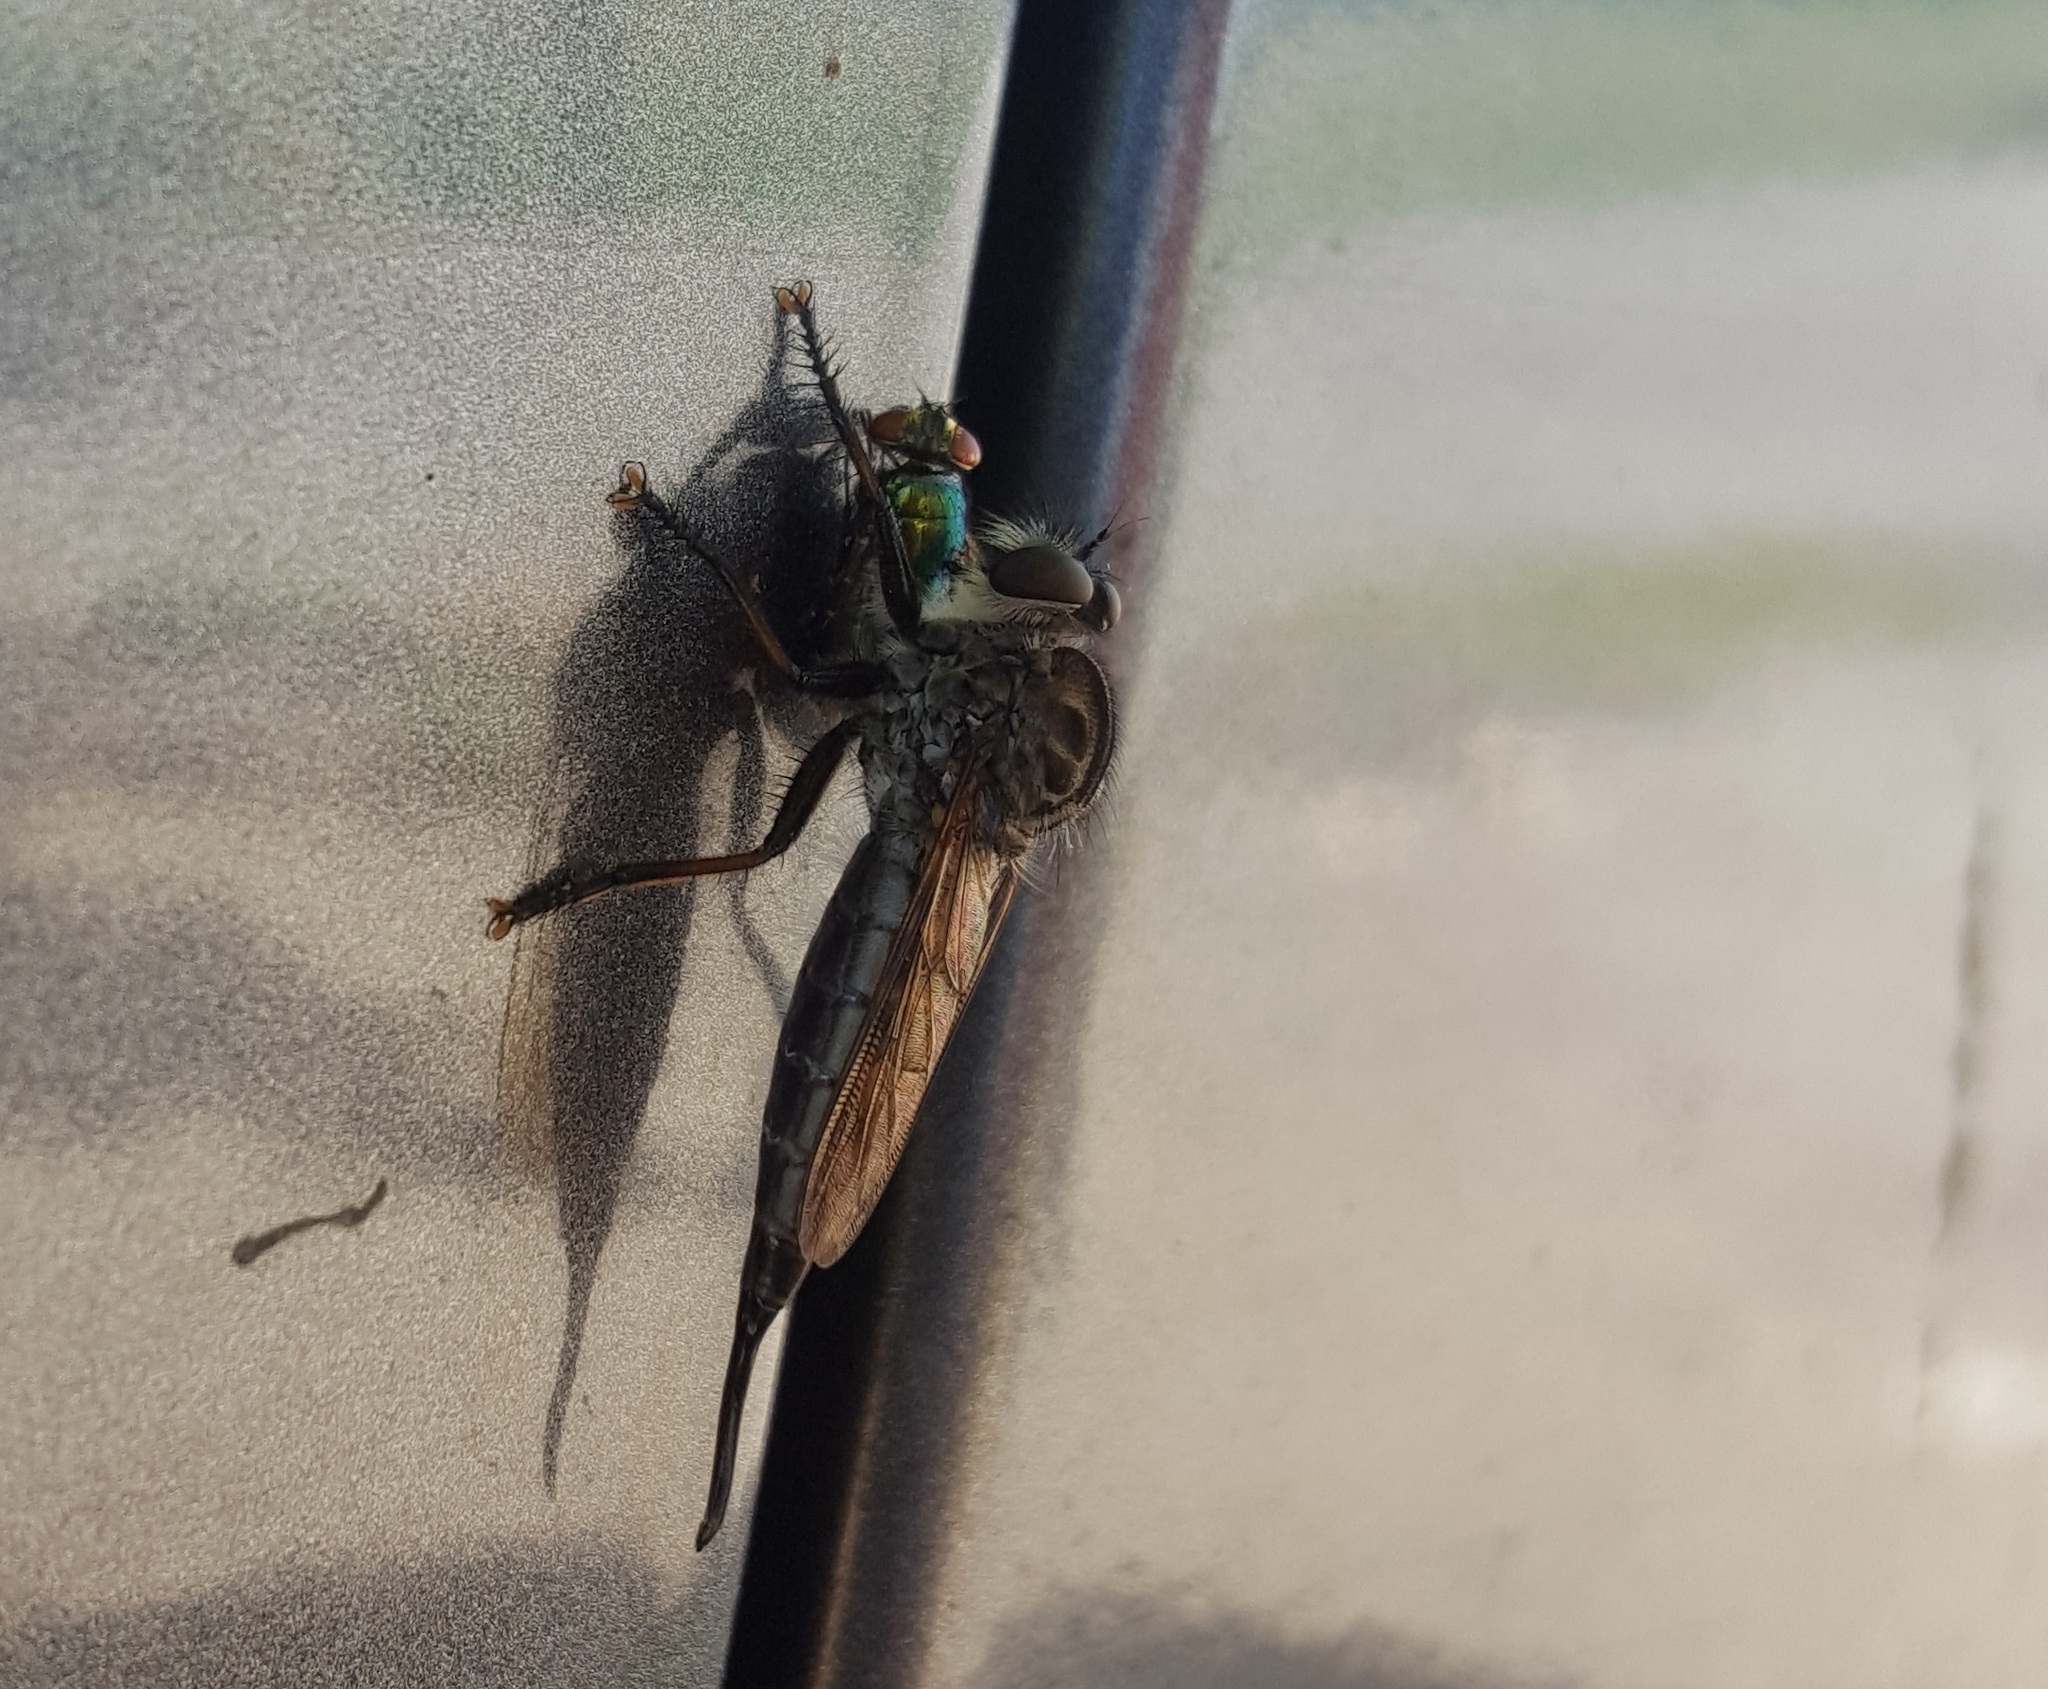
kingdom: Animalia
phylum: Arthropoda
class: Insecta
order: Diptera
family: Asilidae
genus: Efferia
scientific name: Efferia aestuans
